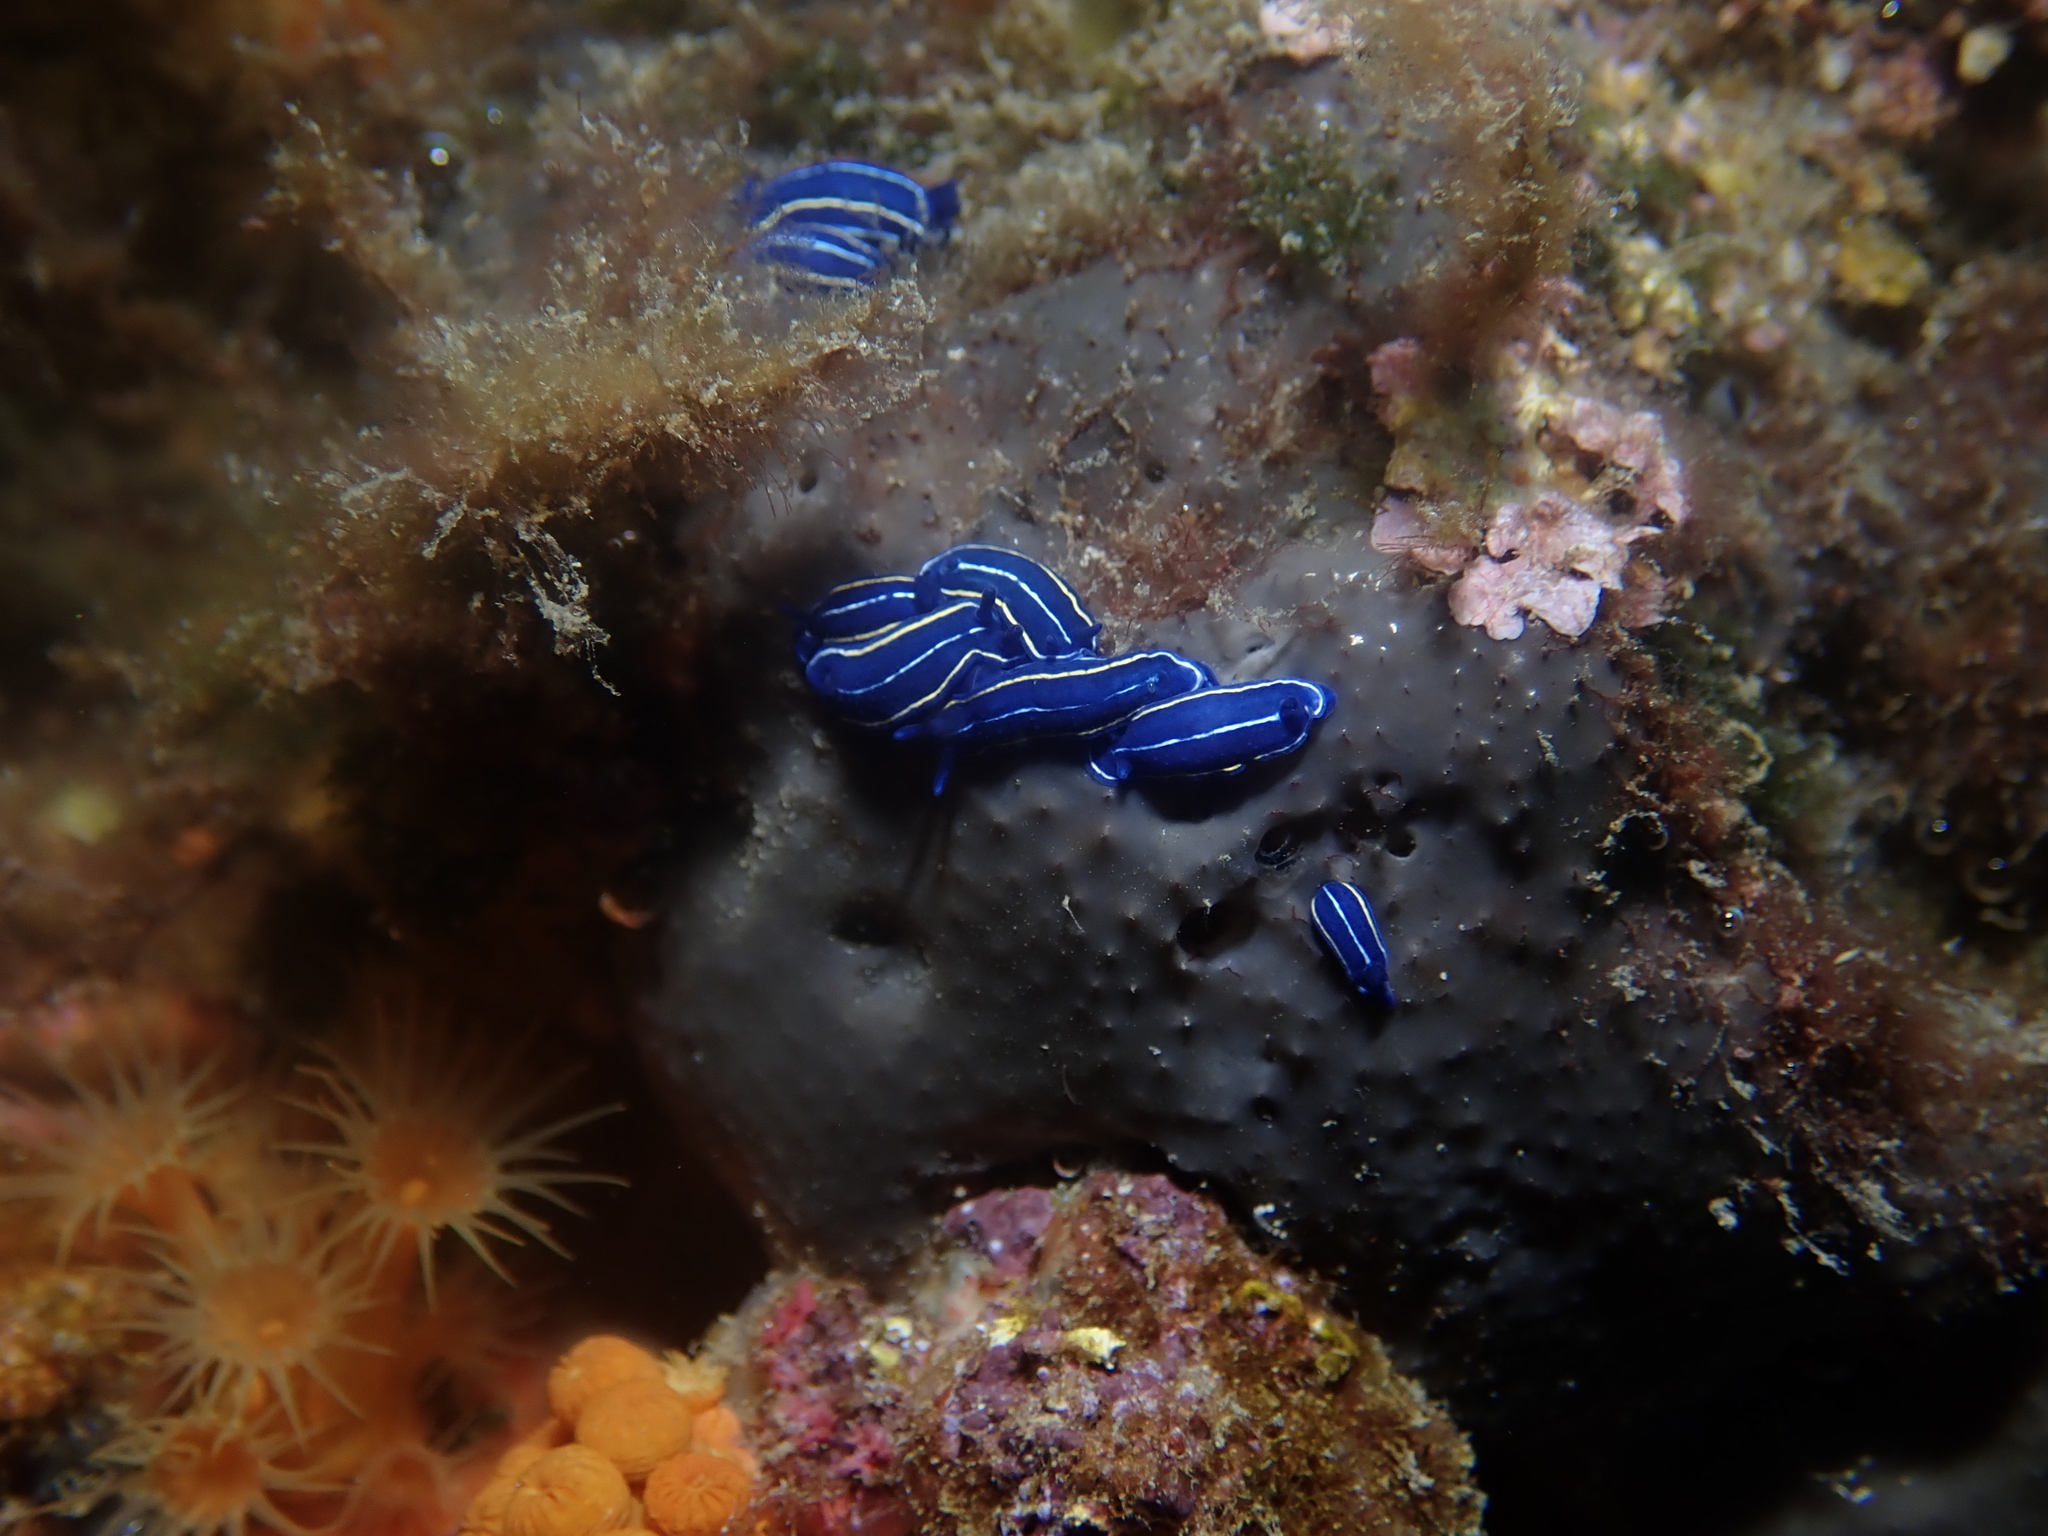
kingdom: Animalia
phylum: Mollusca
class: Gastropoda
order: Nudibranchia
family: Chromodorididae
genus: Felimare
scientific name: Felimare orsinii
